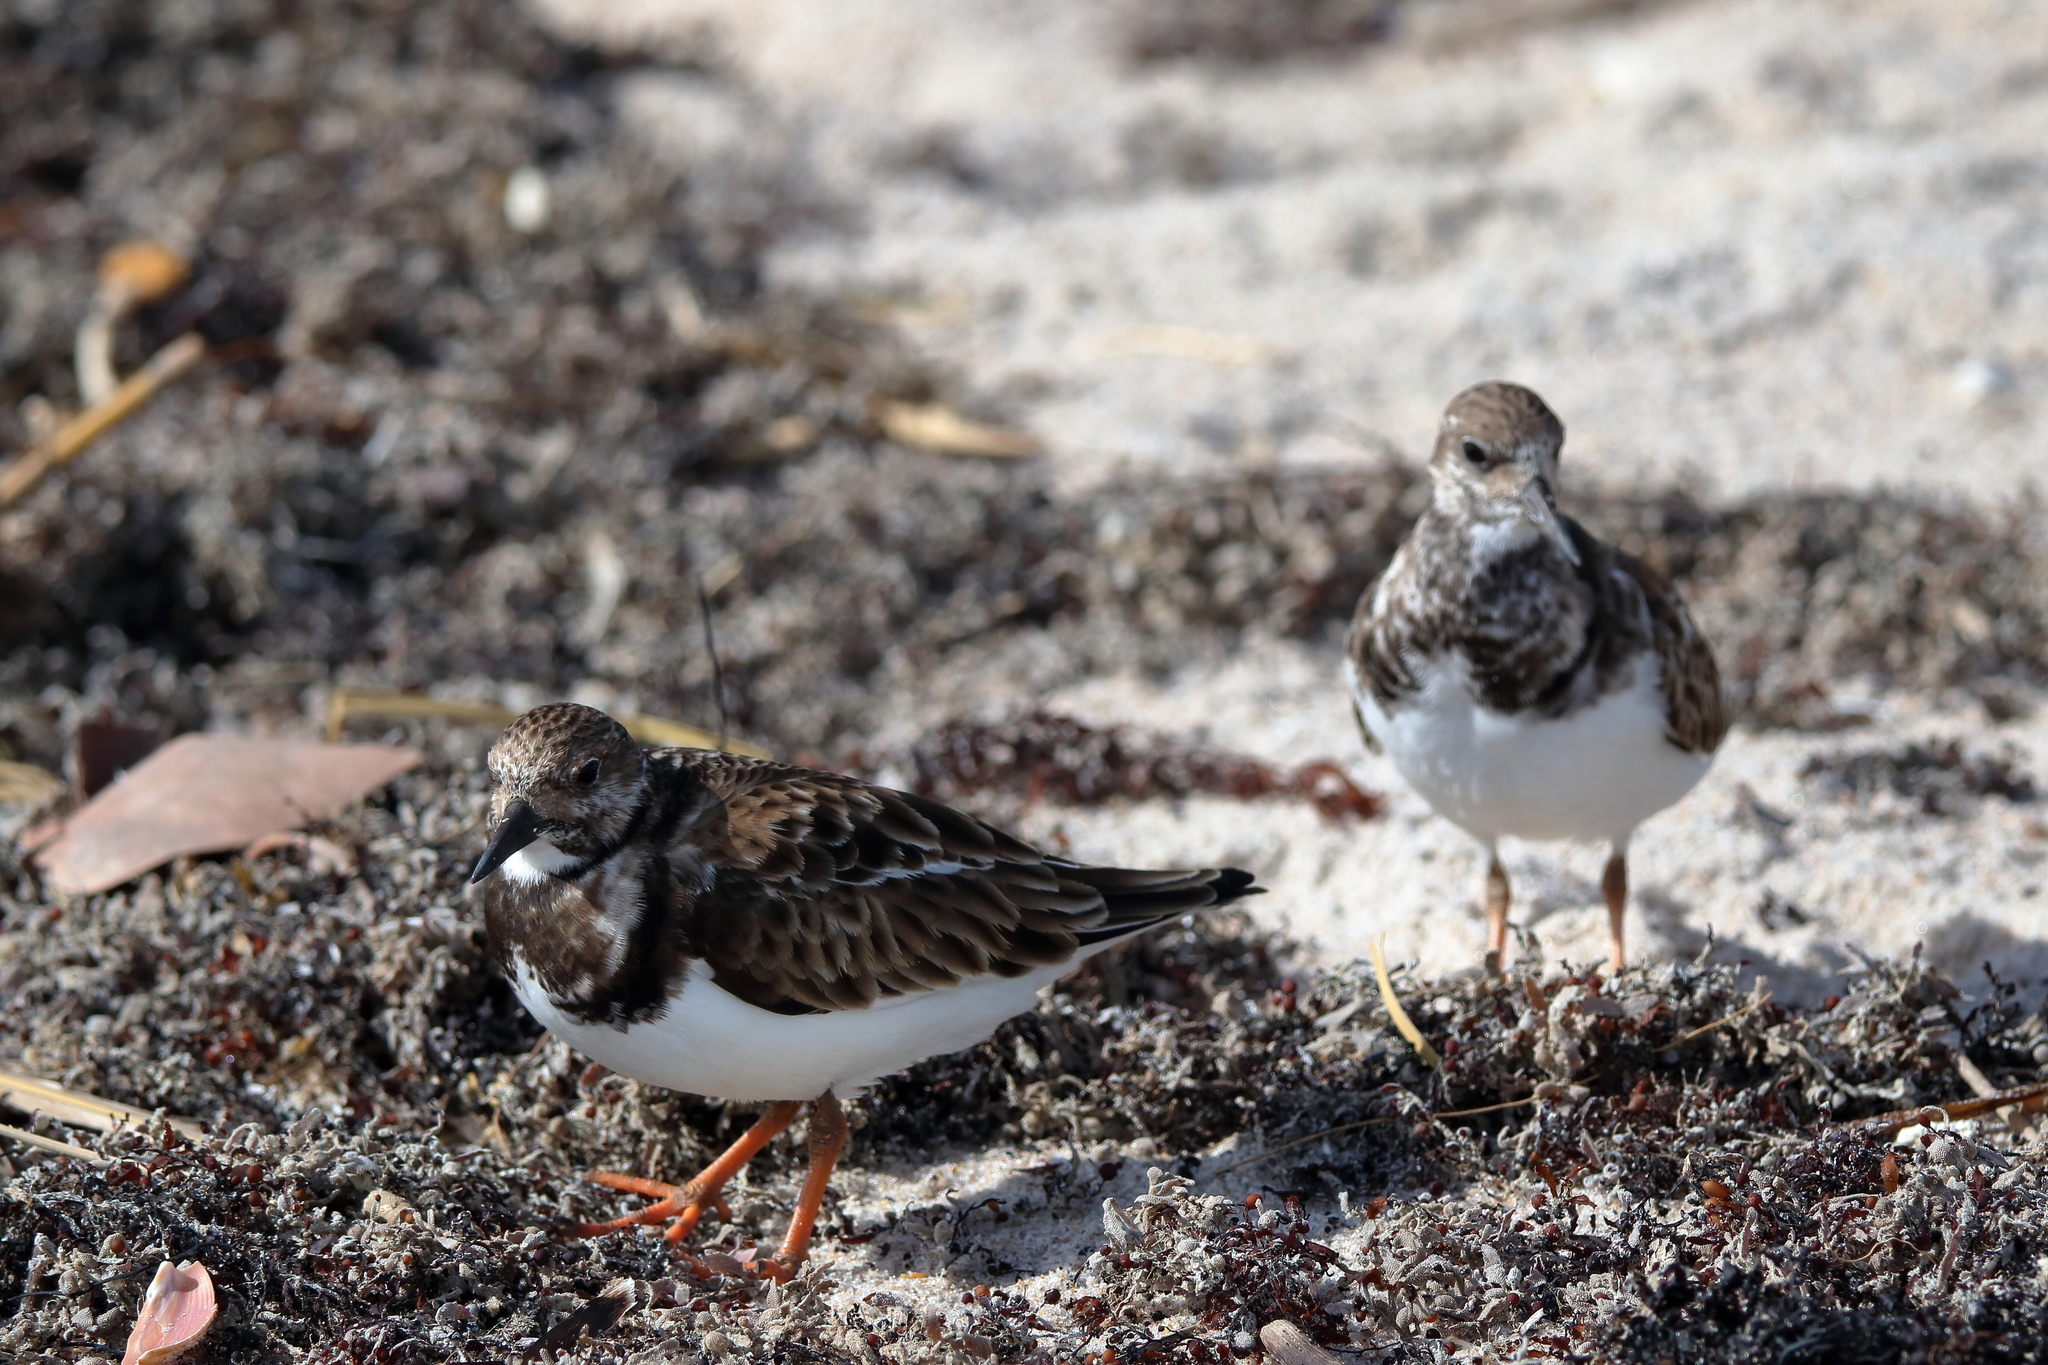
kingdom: Animalia
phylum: Chordata
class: Aves
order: Charadriiformes
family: Scolopacidae
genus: Arenaria
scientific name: Arenaria interpres
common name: Ruddy turnstone
